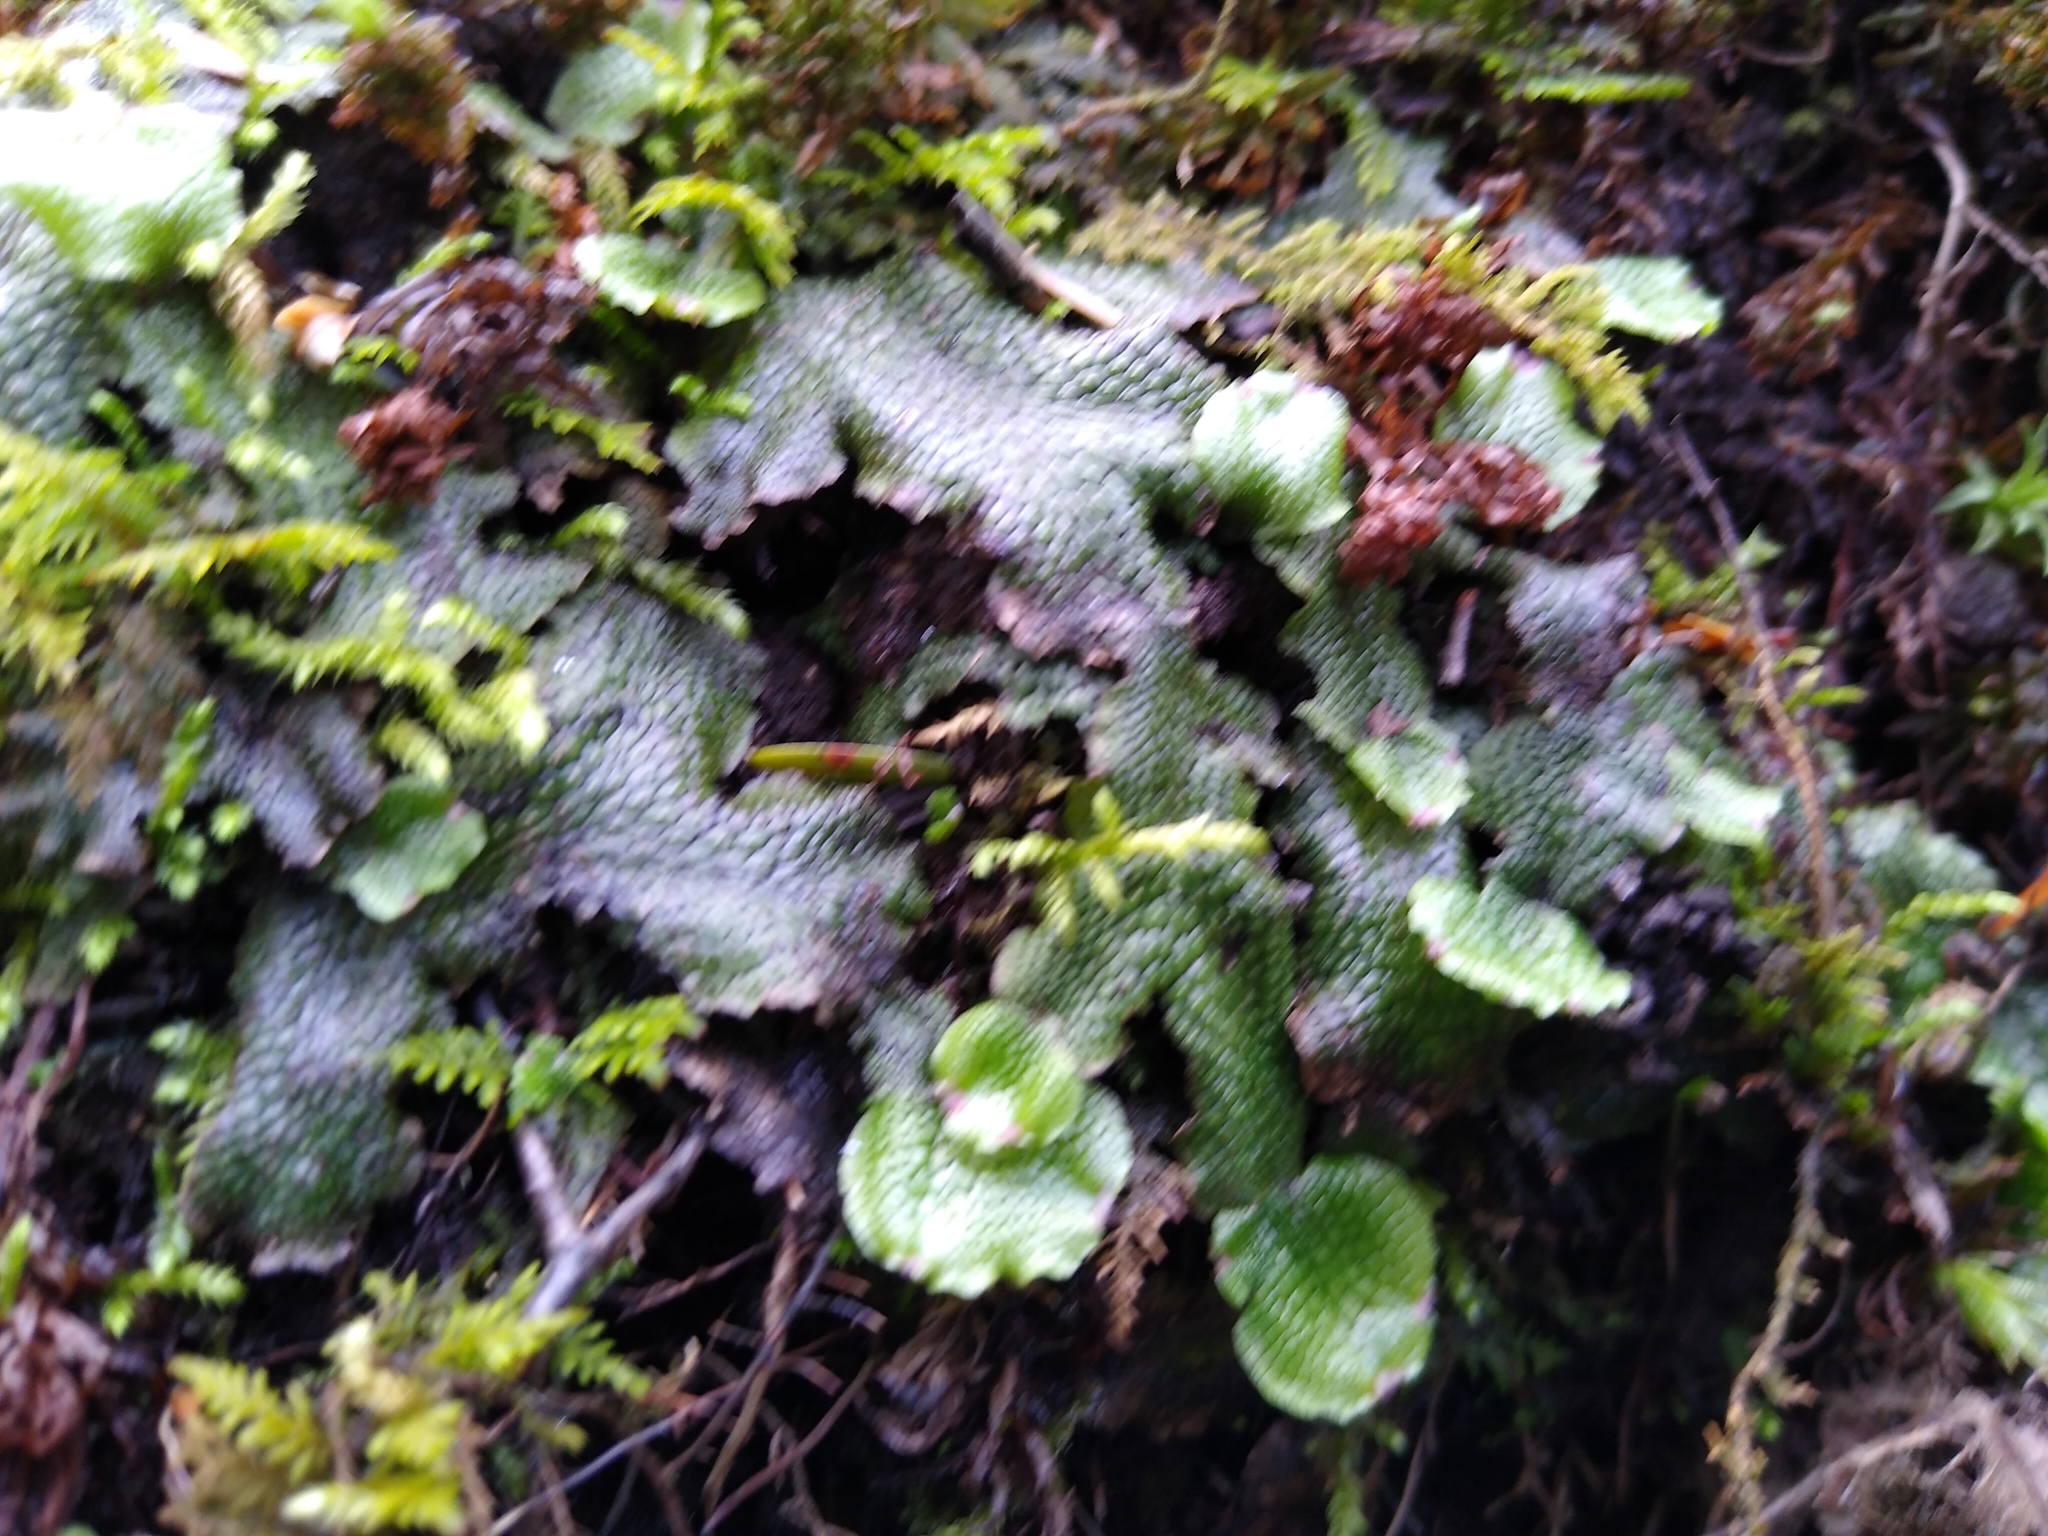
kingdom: Plantae
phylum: Marchantiophyta
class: Marchantiopsida
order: Marchantiales
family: Conocephalaceae
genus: Conocephalum
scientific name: Conocephalum salebrosum
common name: Cat-tongue liverwort
